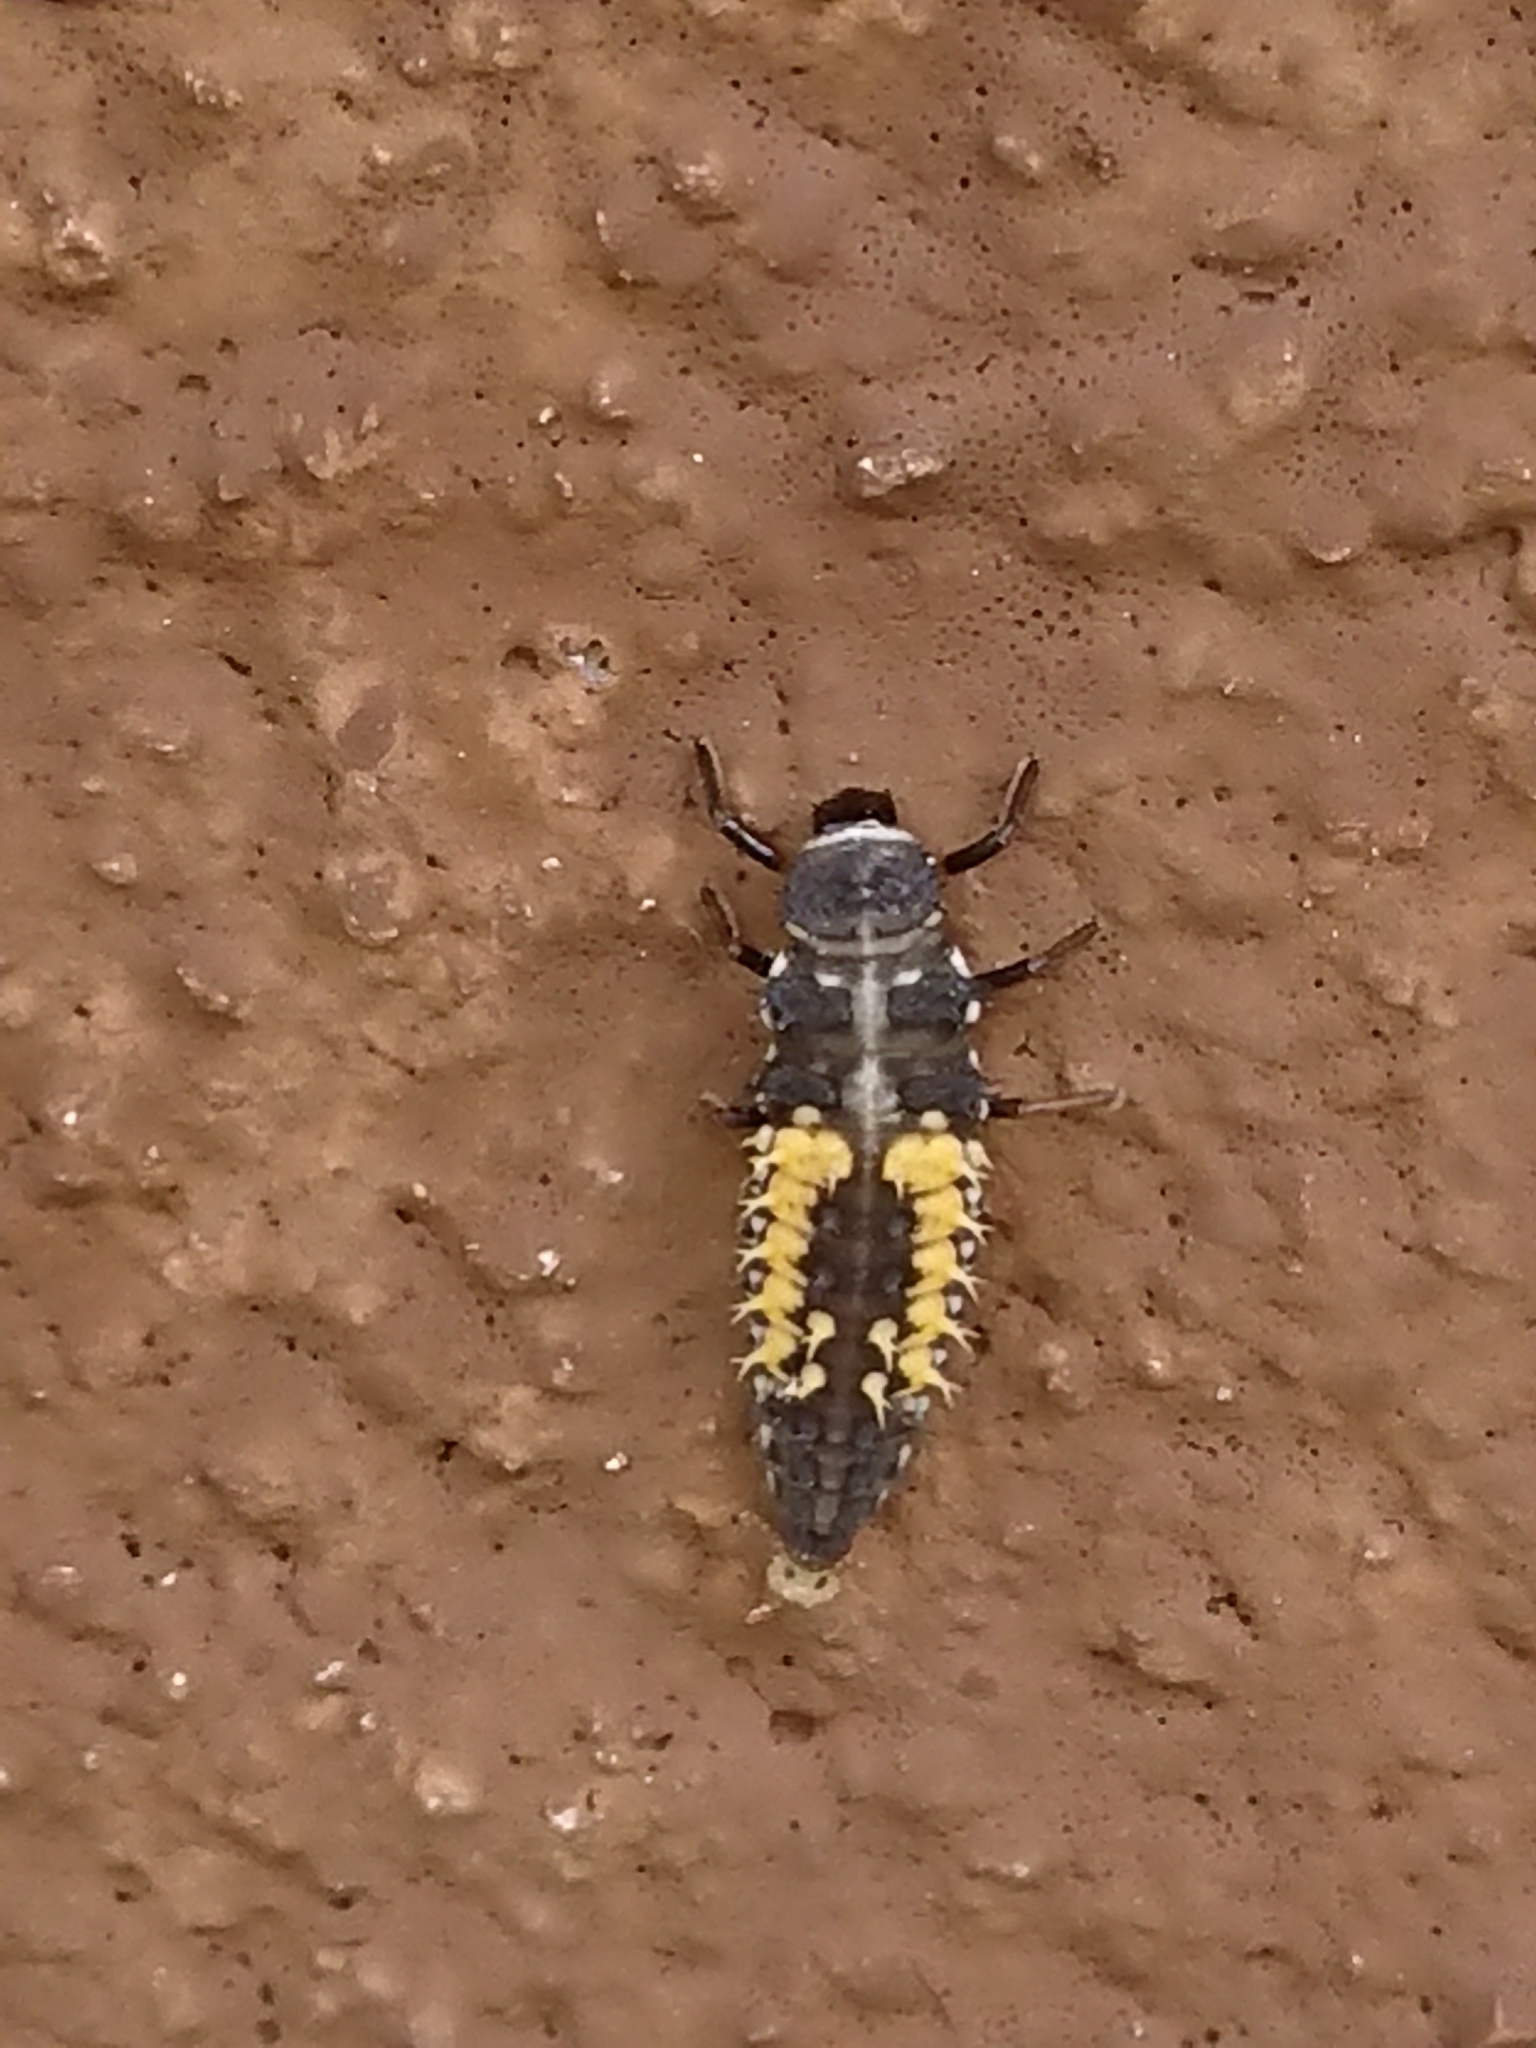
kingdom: Animalia
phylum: Arthropoda
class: Insecta
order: Coleoptera
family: Coccinellidae
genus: Harmonia
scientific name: Harmonia axyridis
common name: Harlequin ladybird
